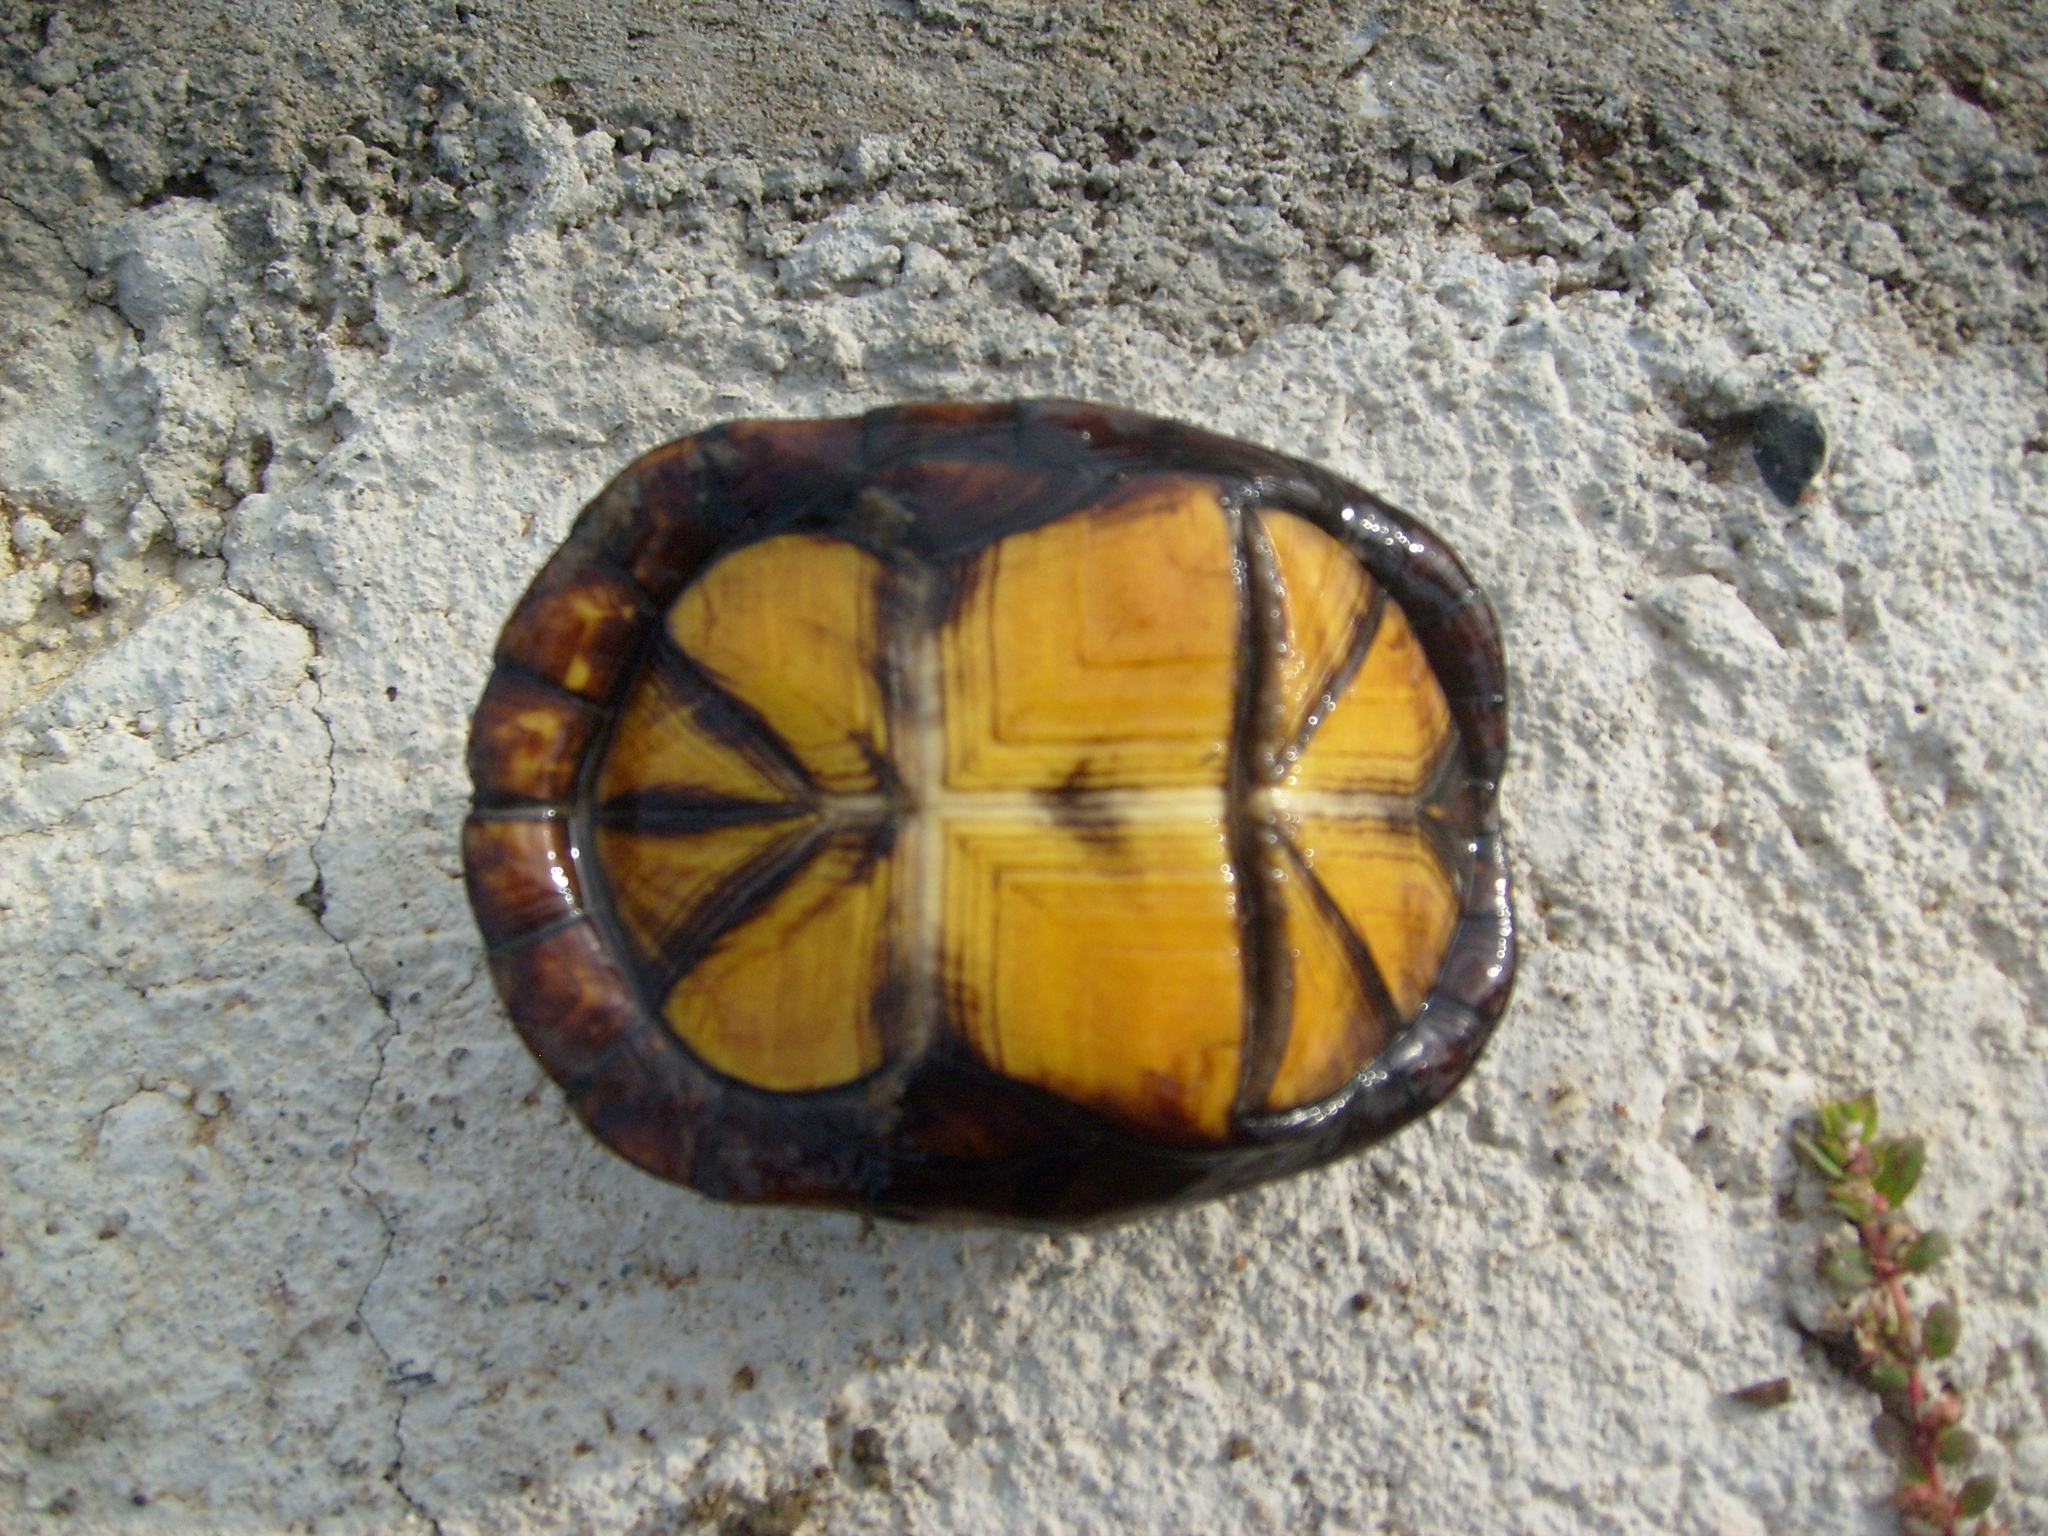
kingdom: Animalia
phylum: Chordata
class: Testudines
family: Kinosternidae
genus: Kinosternon
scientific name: Kinosternon scorpioides
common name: Scorpion mud turtle
